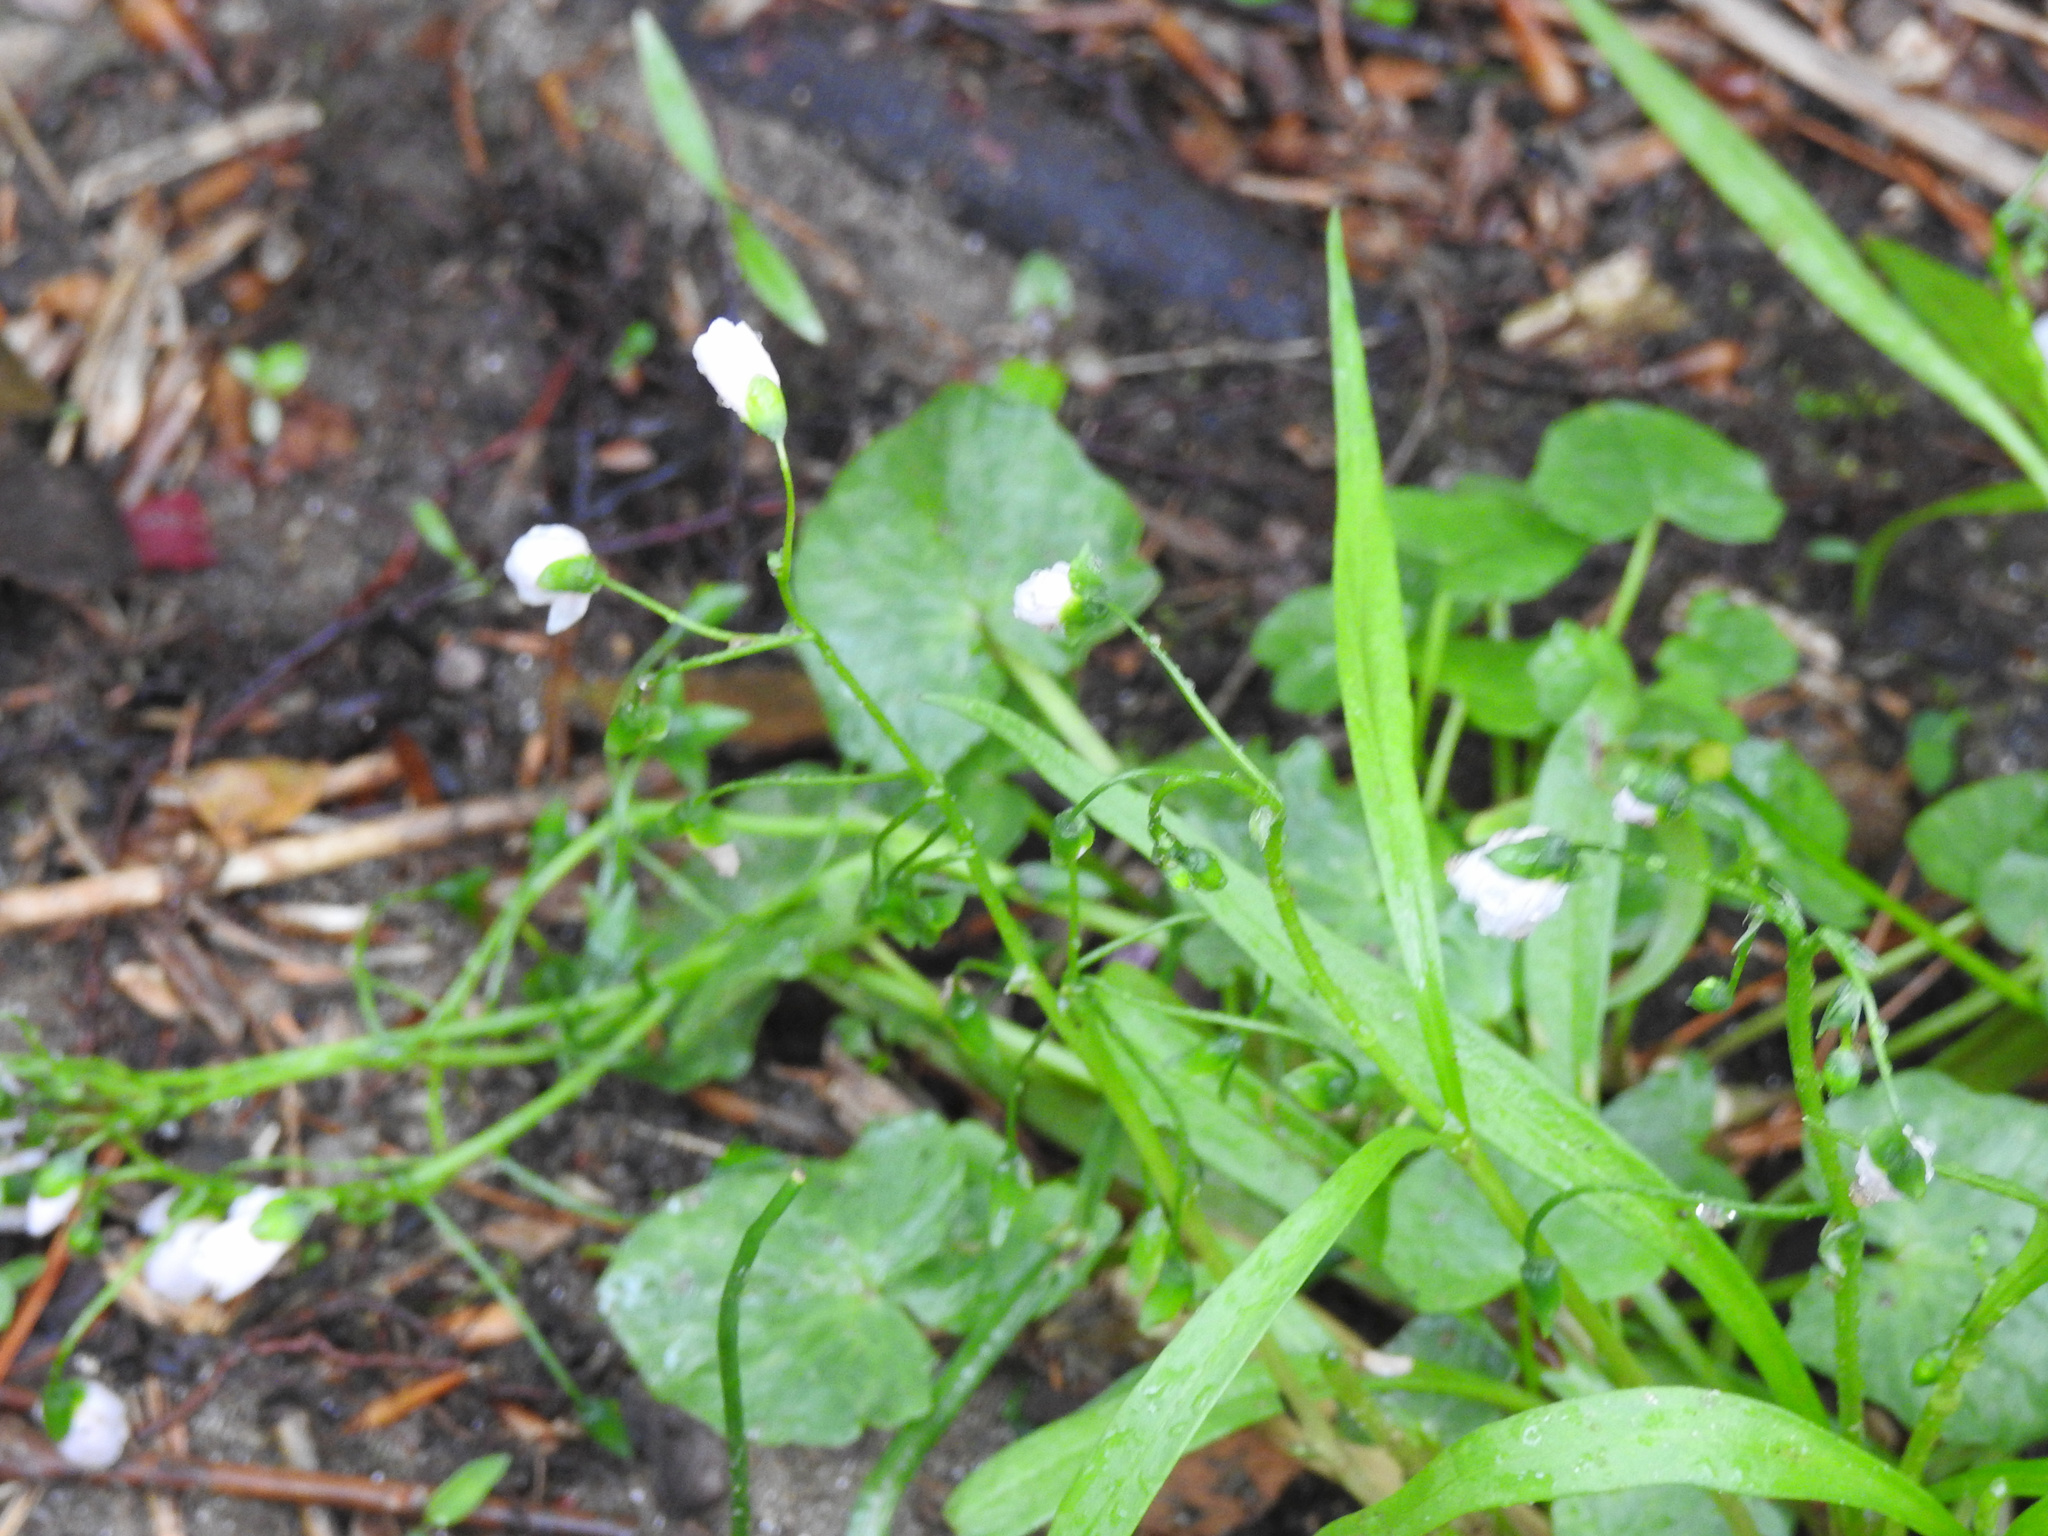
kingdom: Plantae
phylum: Tracheophyta
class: Magnoliopsida
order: Caryophyllales
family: Montiaceae
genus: Claytonia
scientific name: Claytonia virginica
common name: Virginia springbeauty
